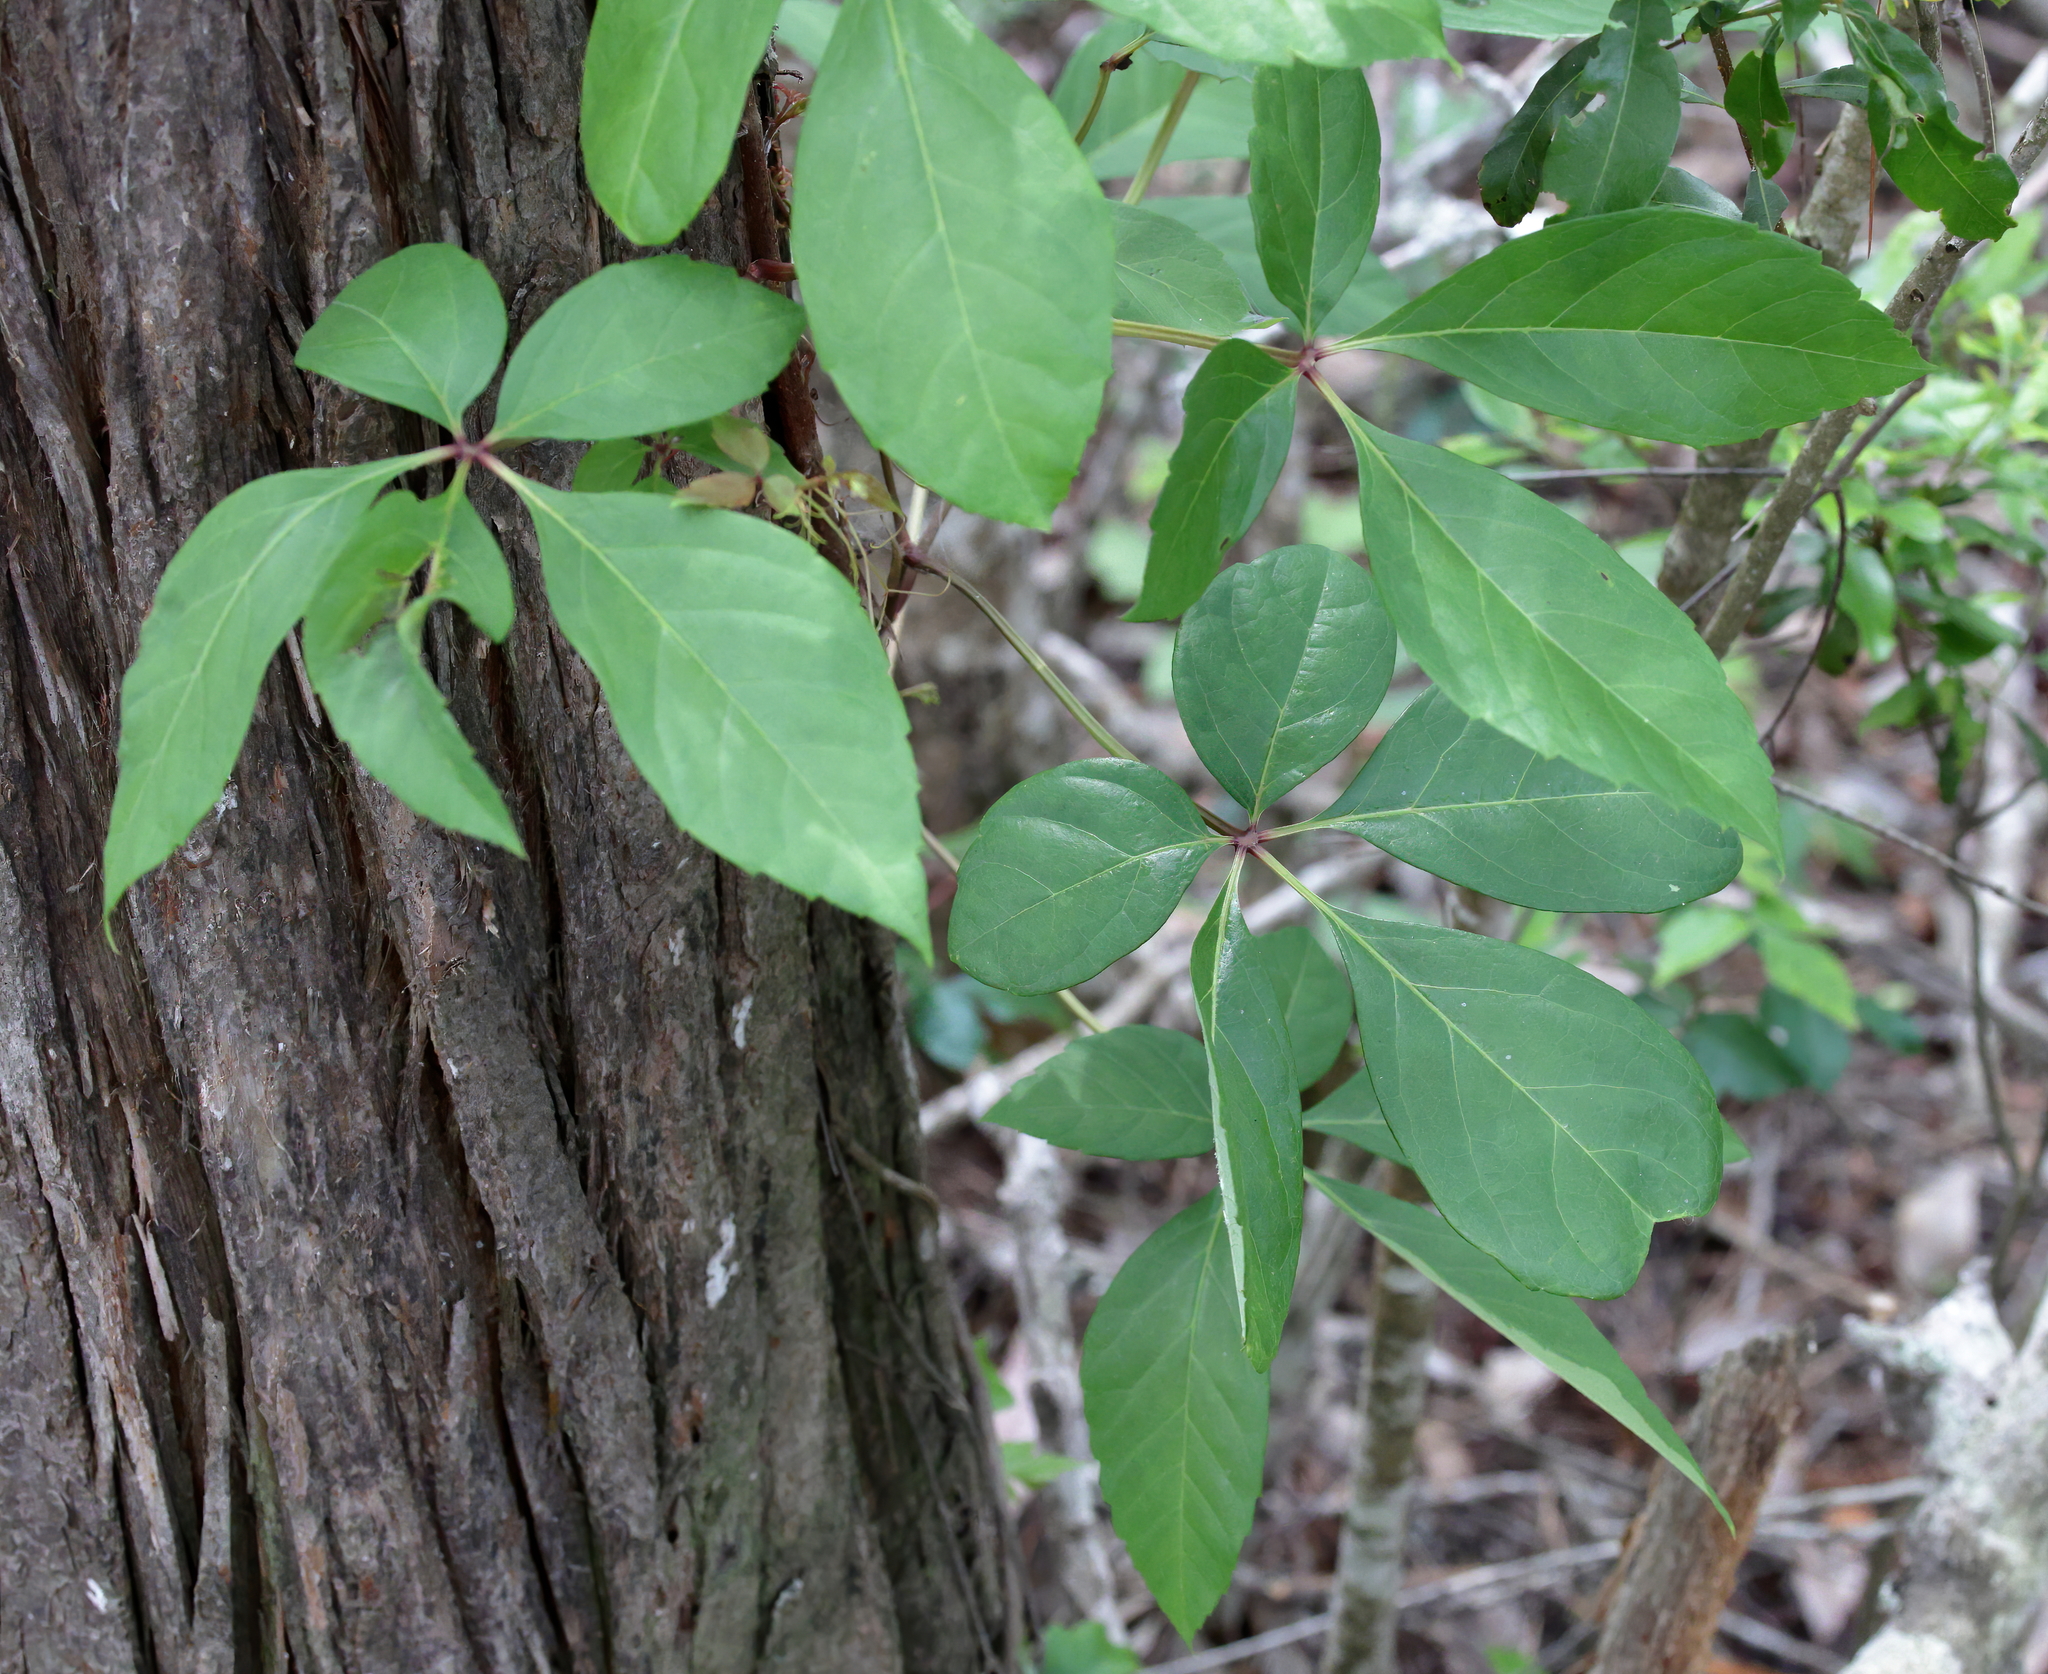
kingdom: Plantae
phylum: Tracheophyta
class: Magnoliopsida
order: Vitales
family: Vitaceae
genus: Parthenocissus
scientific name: Parthenocissus quinquefolia
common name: Virginia-creeper
